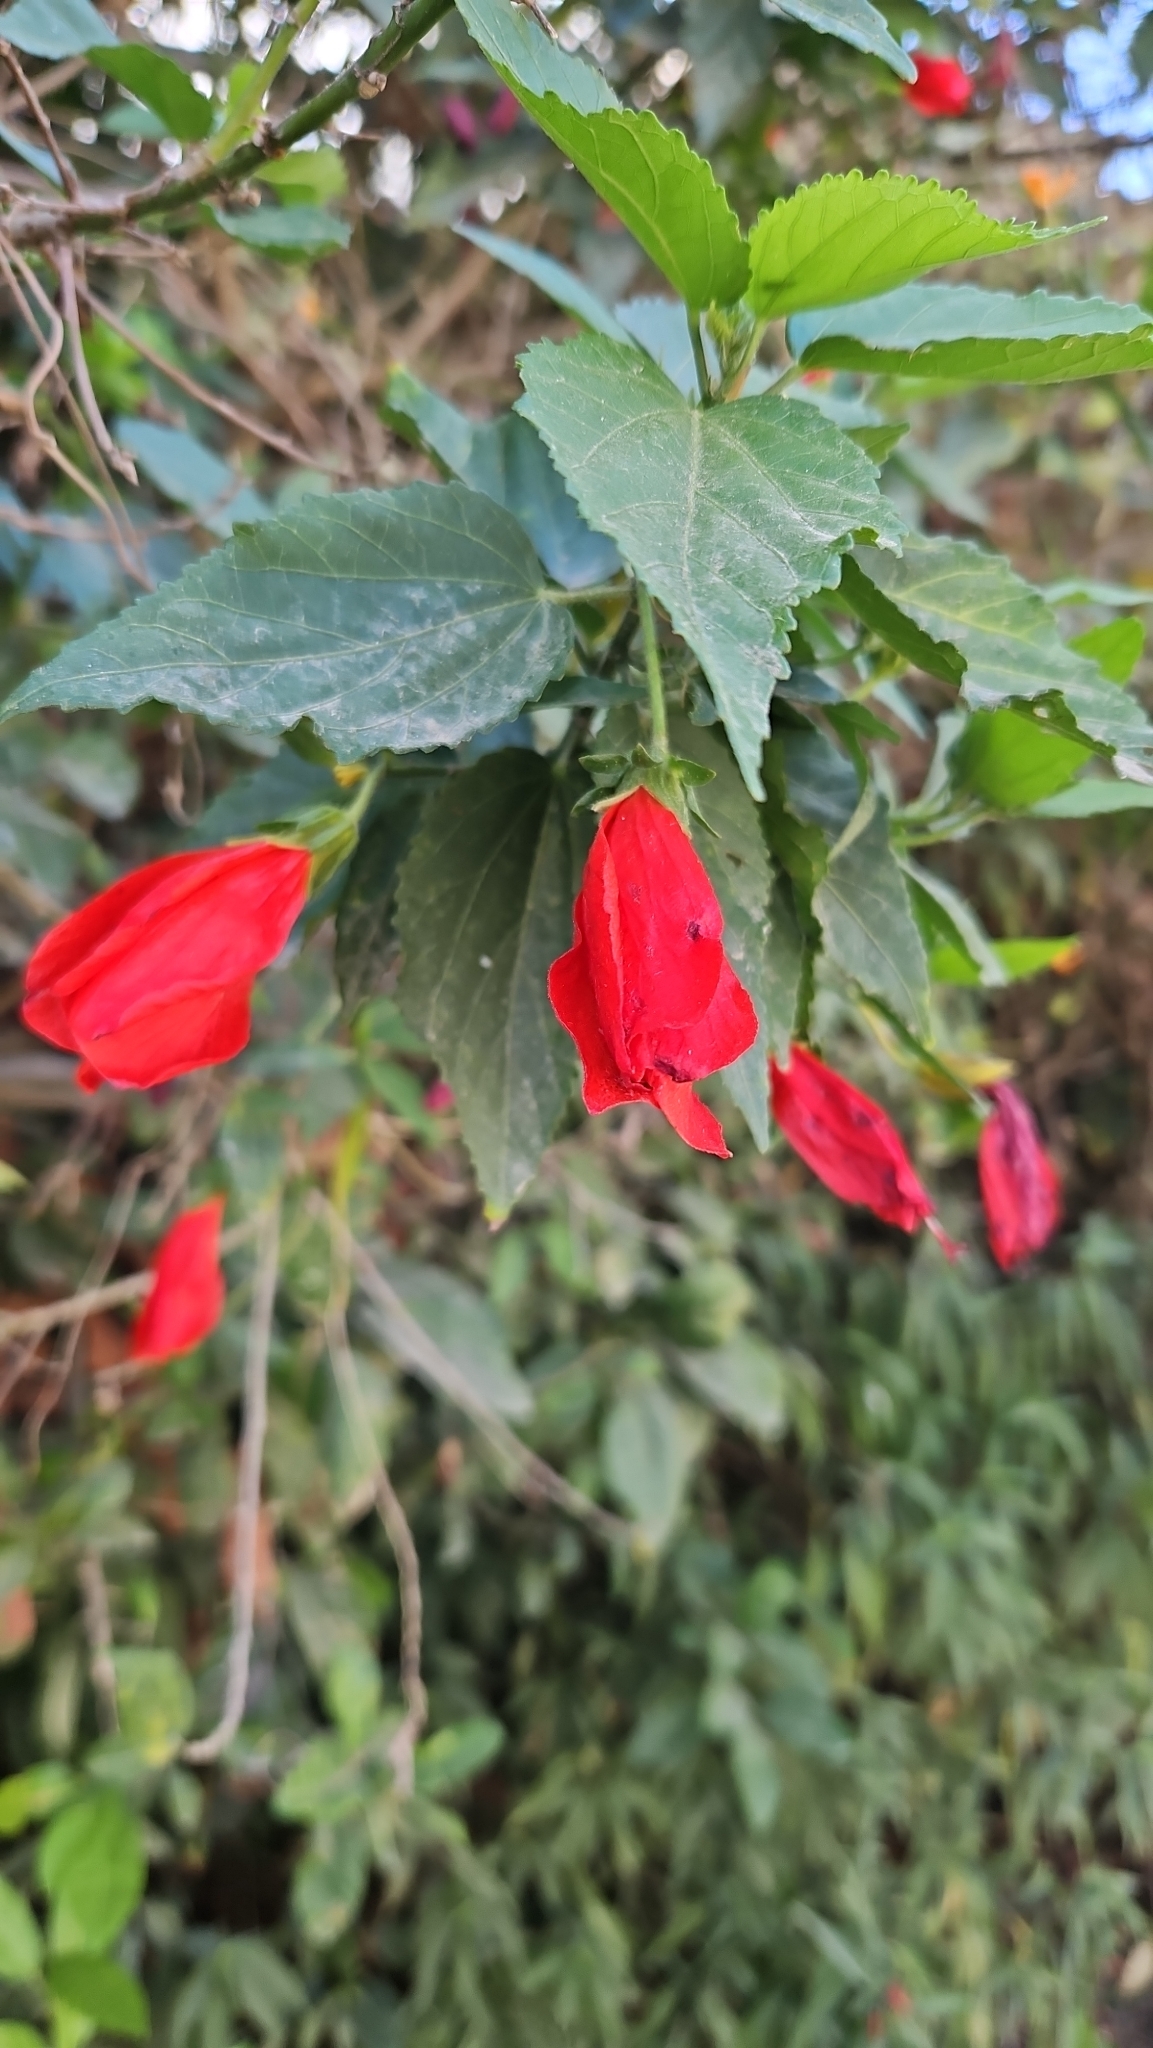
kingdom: Plantae
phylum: Tracheophyta
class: Magnoliopsida
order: Malvales
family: Malvaceae
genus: Malvaviscus
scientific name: Malvaviscus penduliflorus
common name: Mazapan
